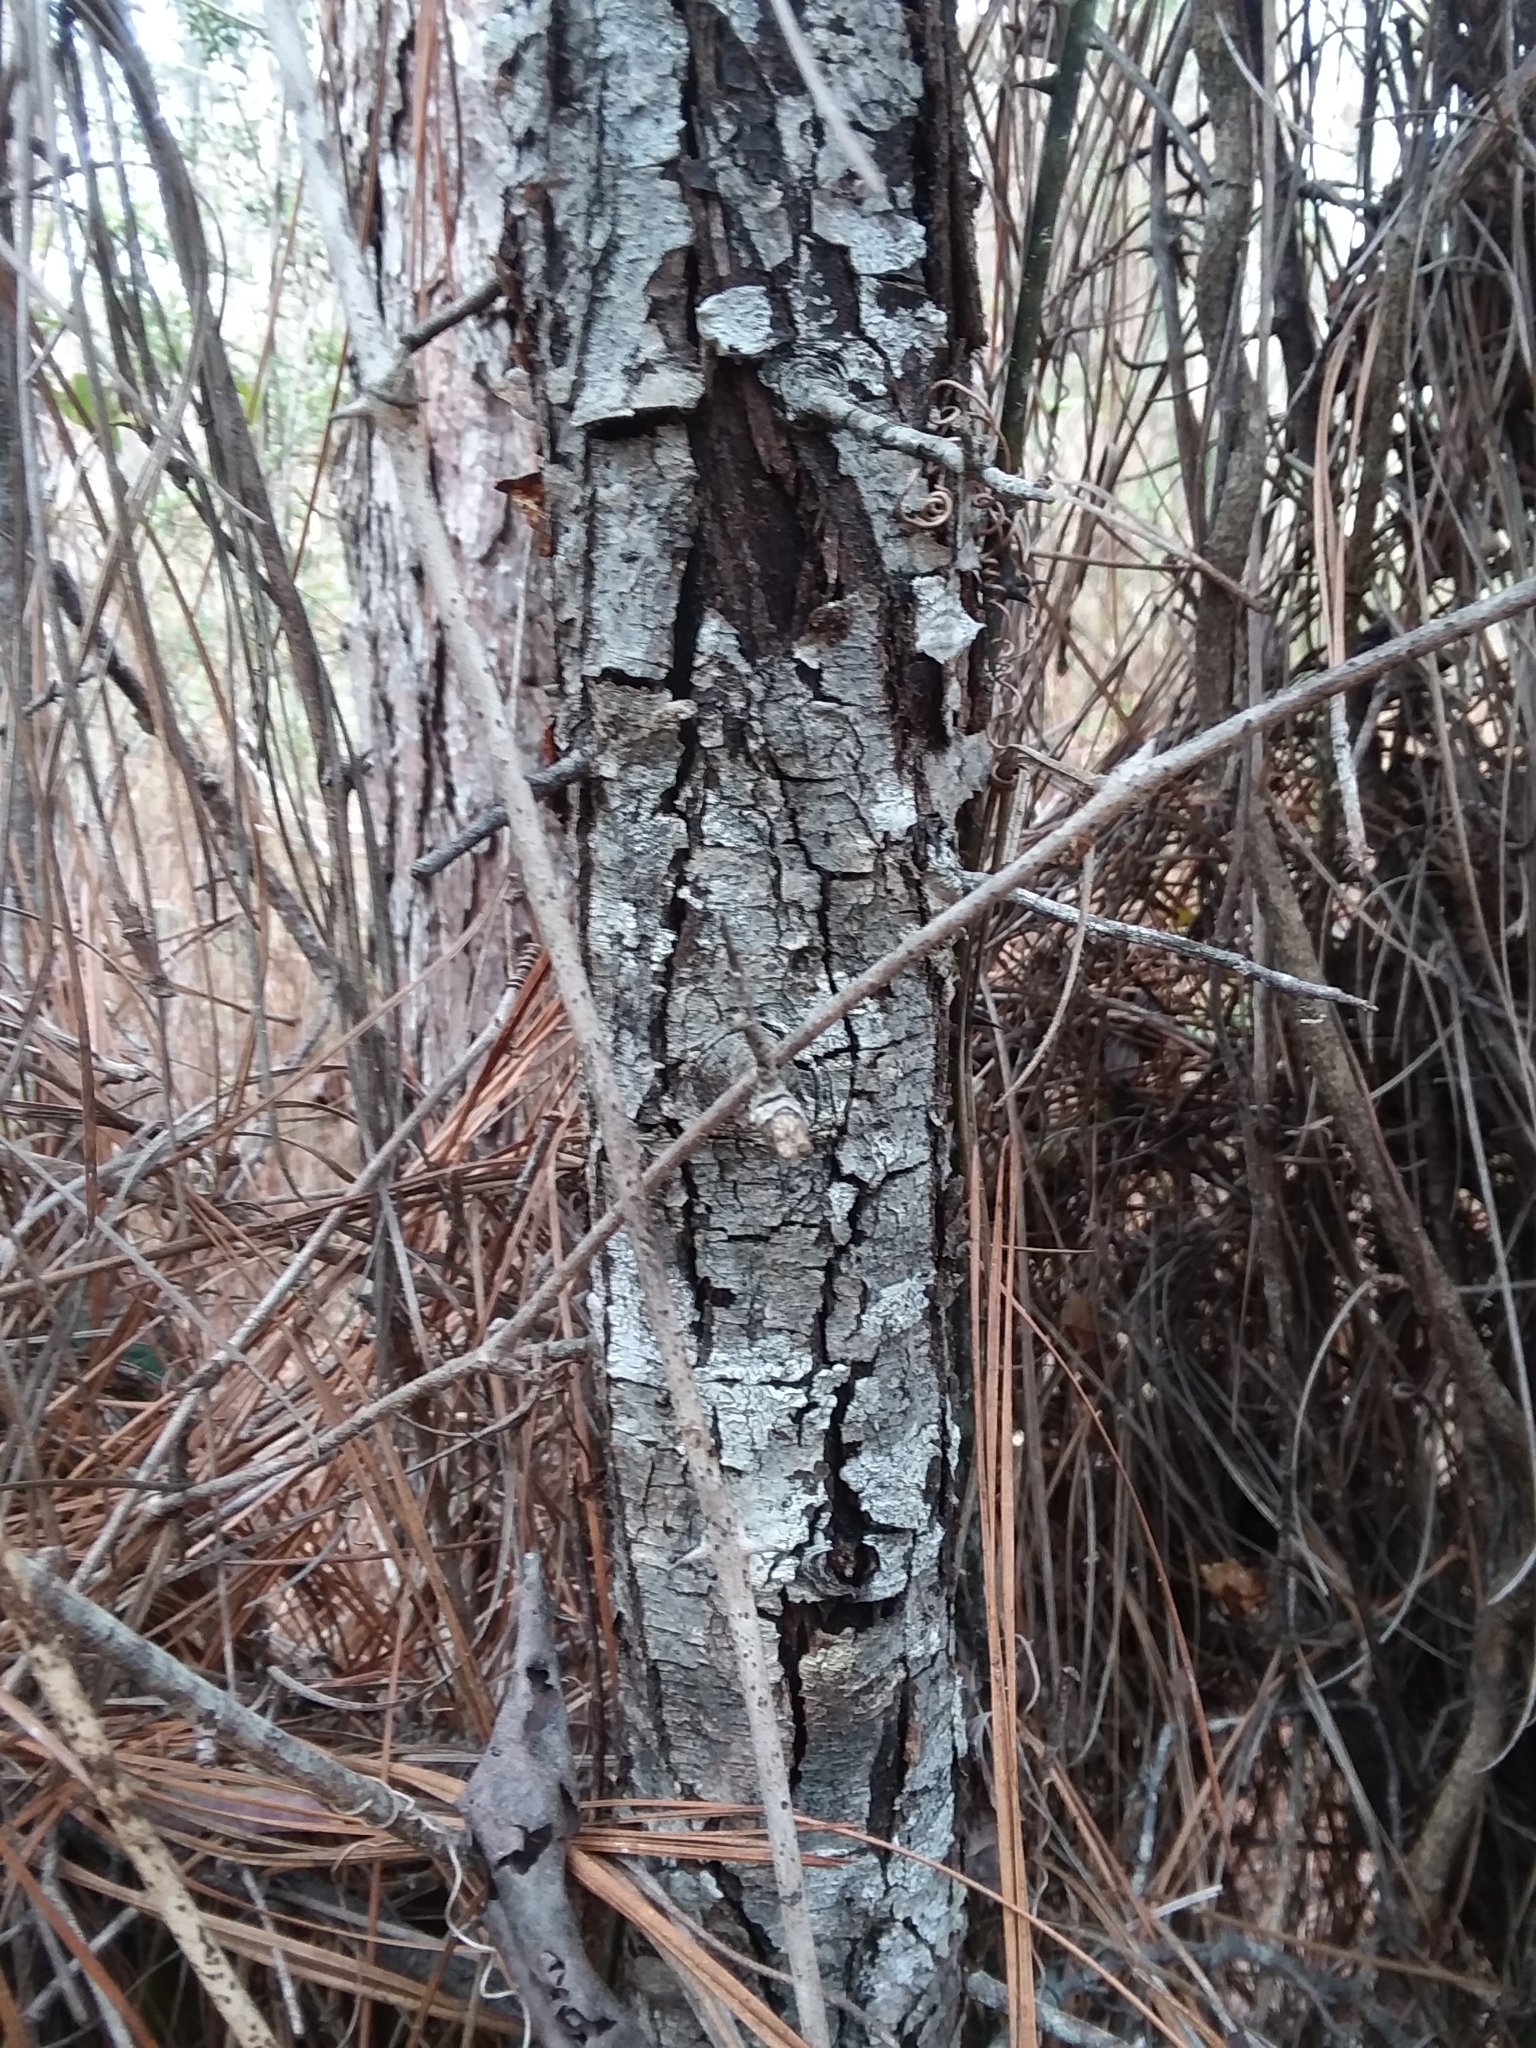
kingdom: Plantae
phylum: Tracheophyta
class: Magnoliopsida
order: Rosales
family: Rosaceae
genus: Malus
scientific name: Malus angustifolia
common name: Southern crab apple
